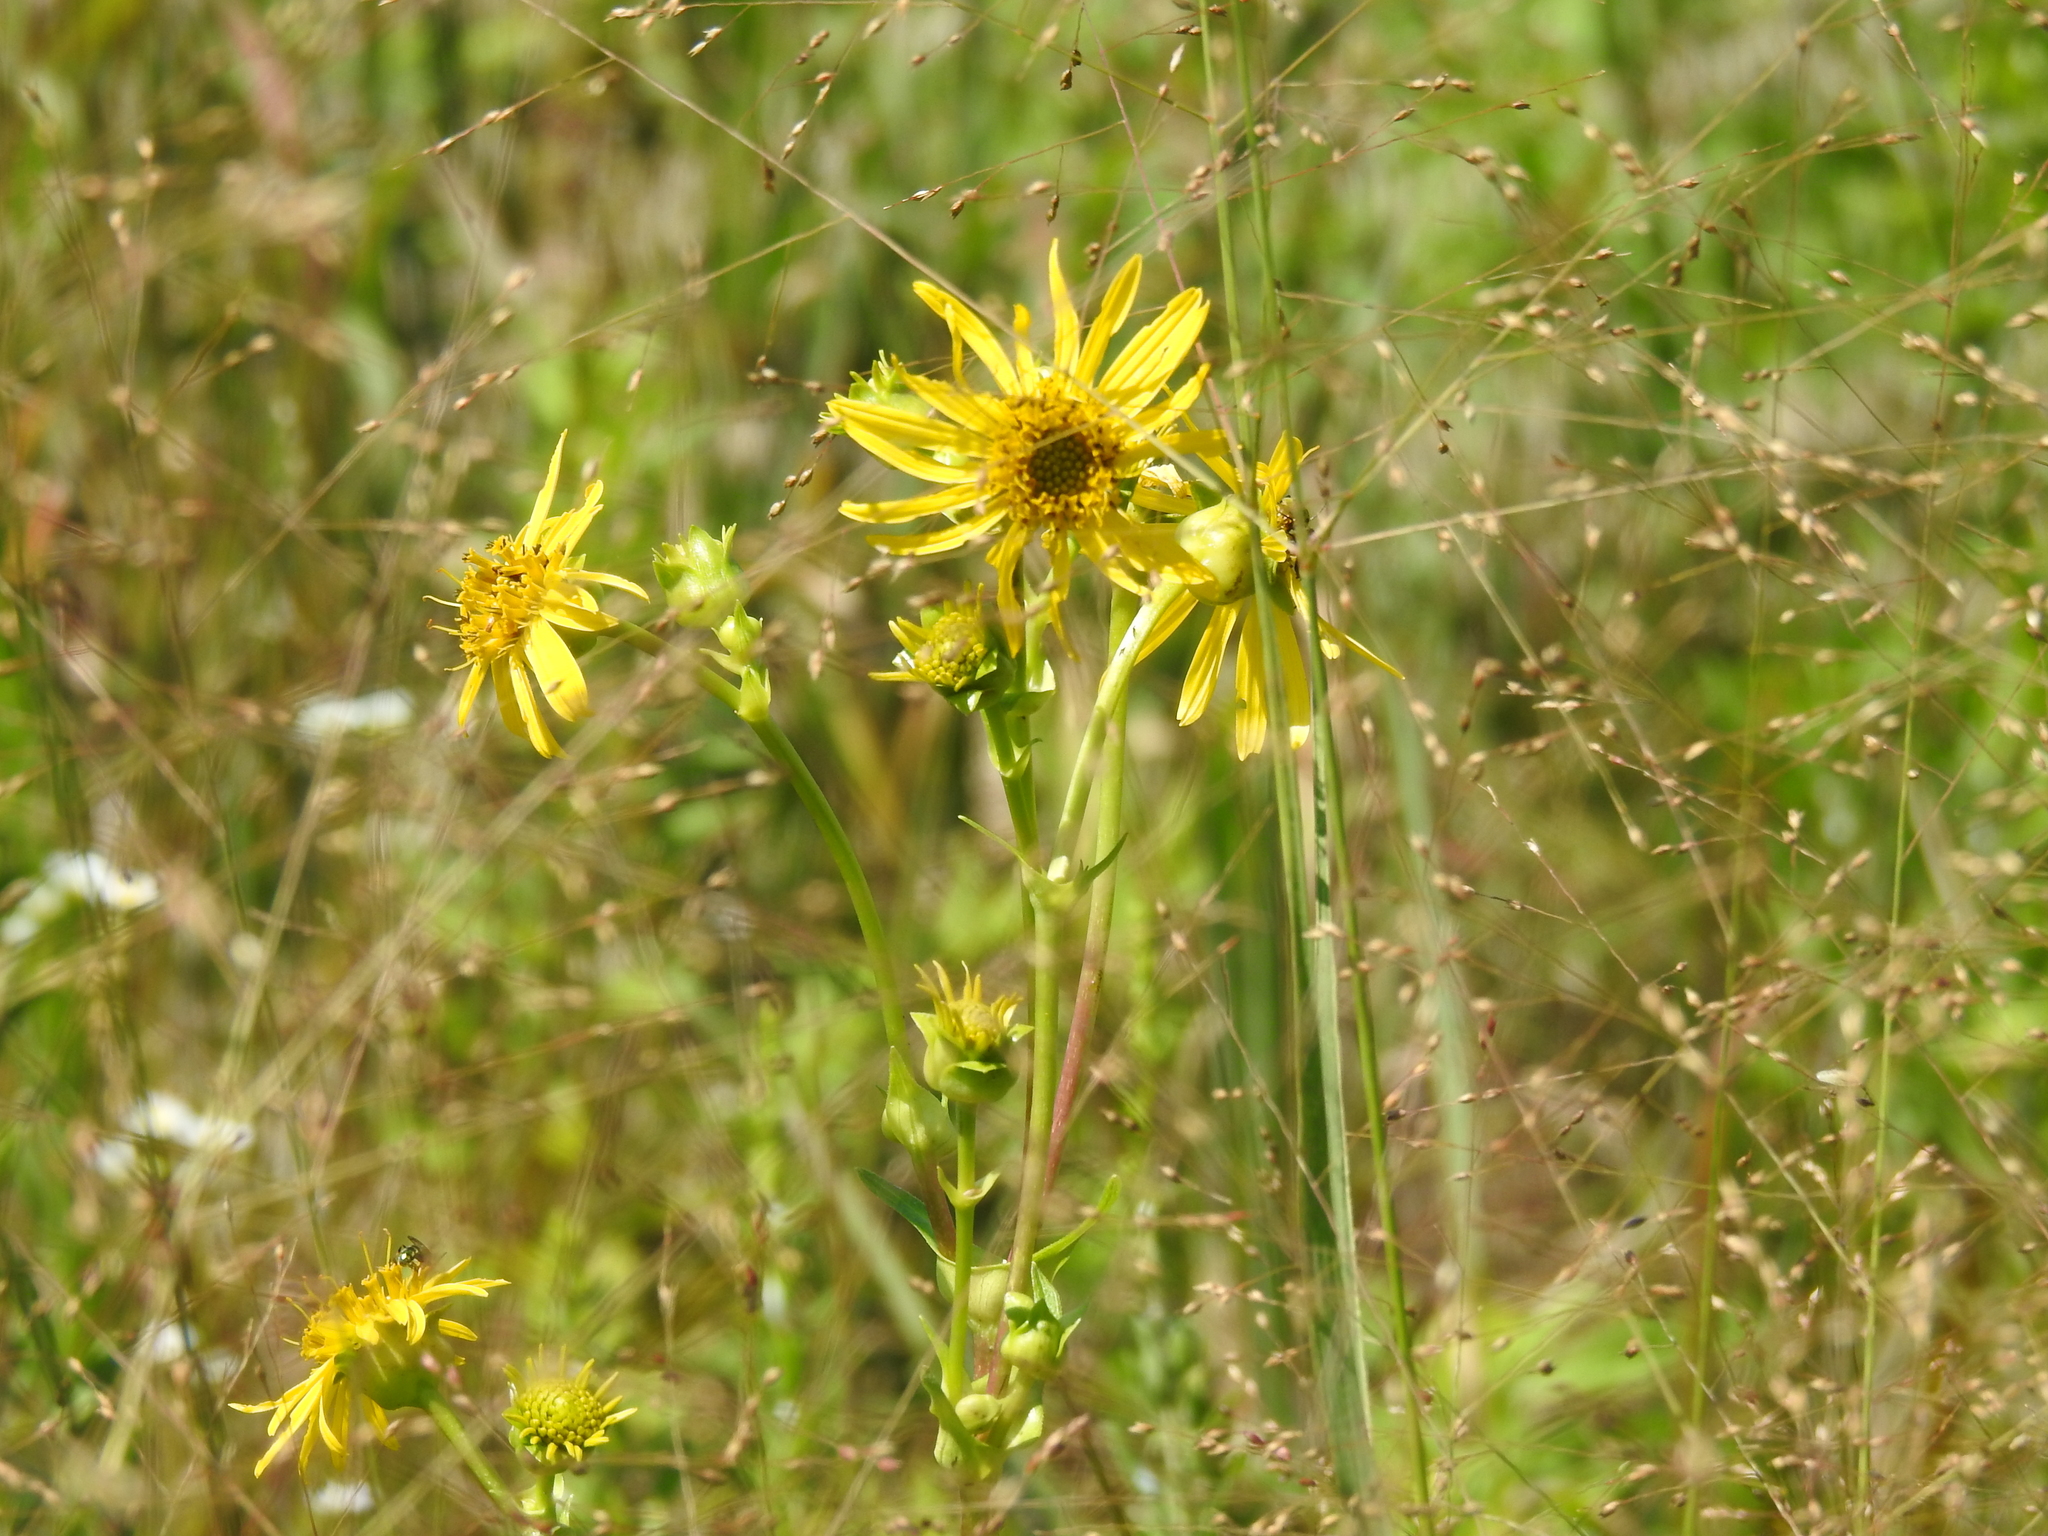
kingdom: Plantae
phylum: Tracheophyta
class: Magnoliopsida
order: Asterales
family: Asteraceae
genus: Silphium
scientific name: Silphium perfoliatum
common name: Cup-plant
